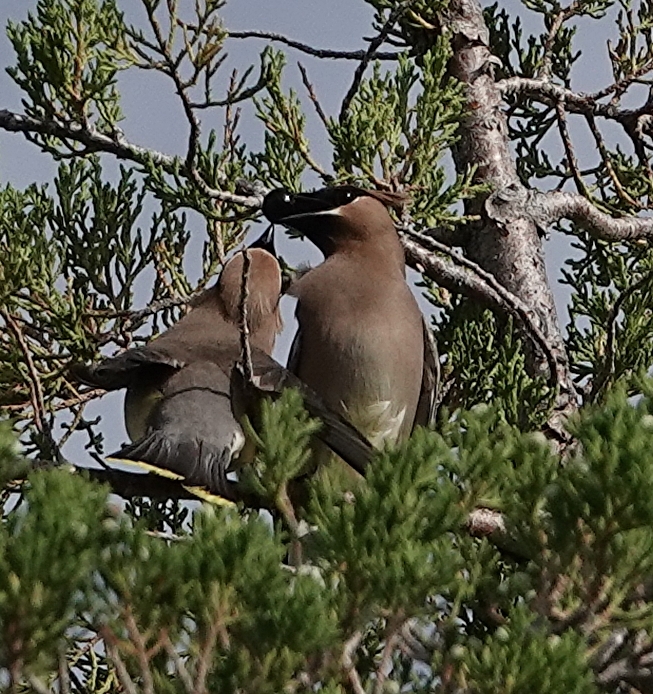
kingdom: Animalia
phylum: Chordata
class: Aves
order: Passeriformes
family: Bombycillidae
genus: Bombycilla
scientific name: Bombycilla cedrorum
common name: Cedar waxwing
